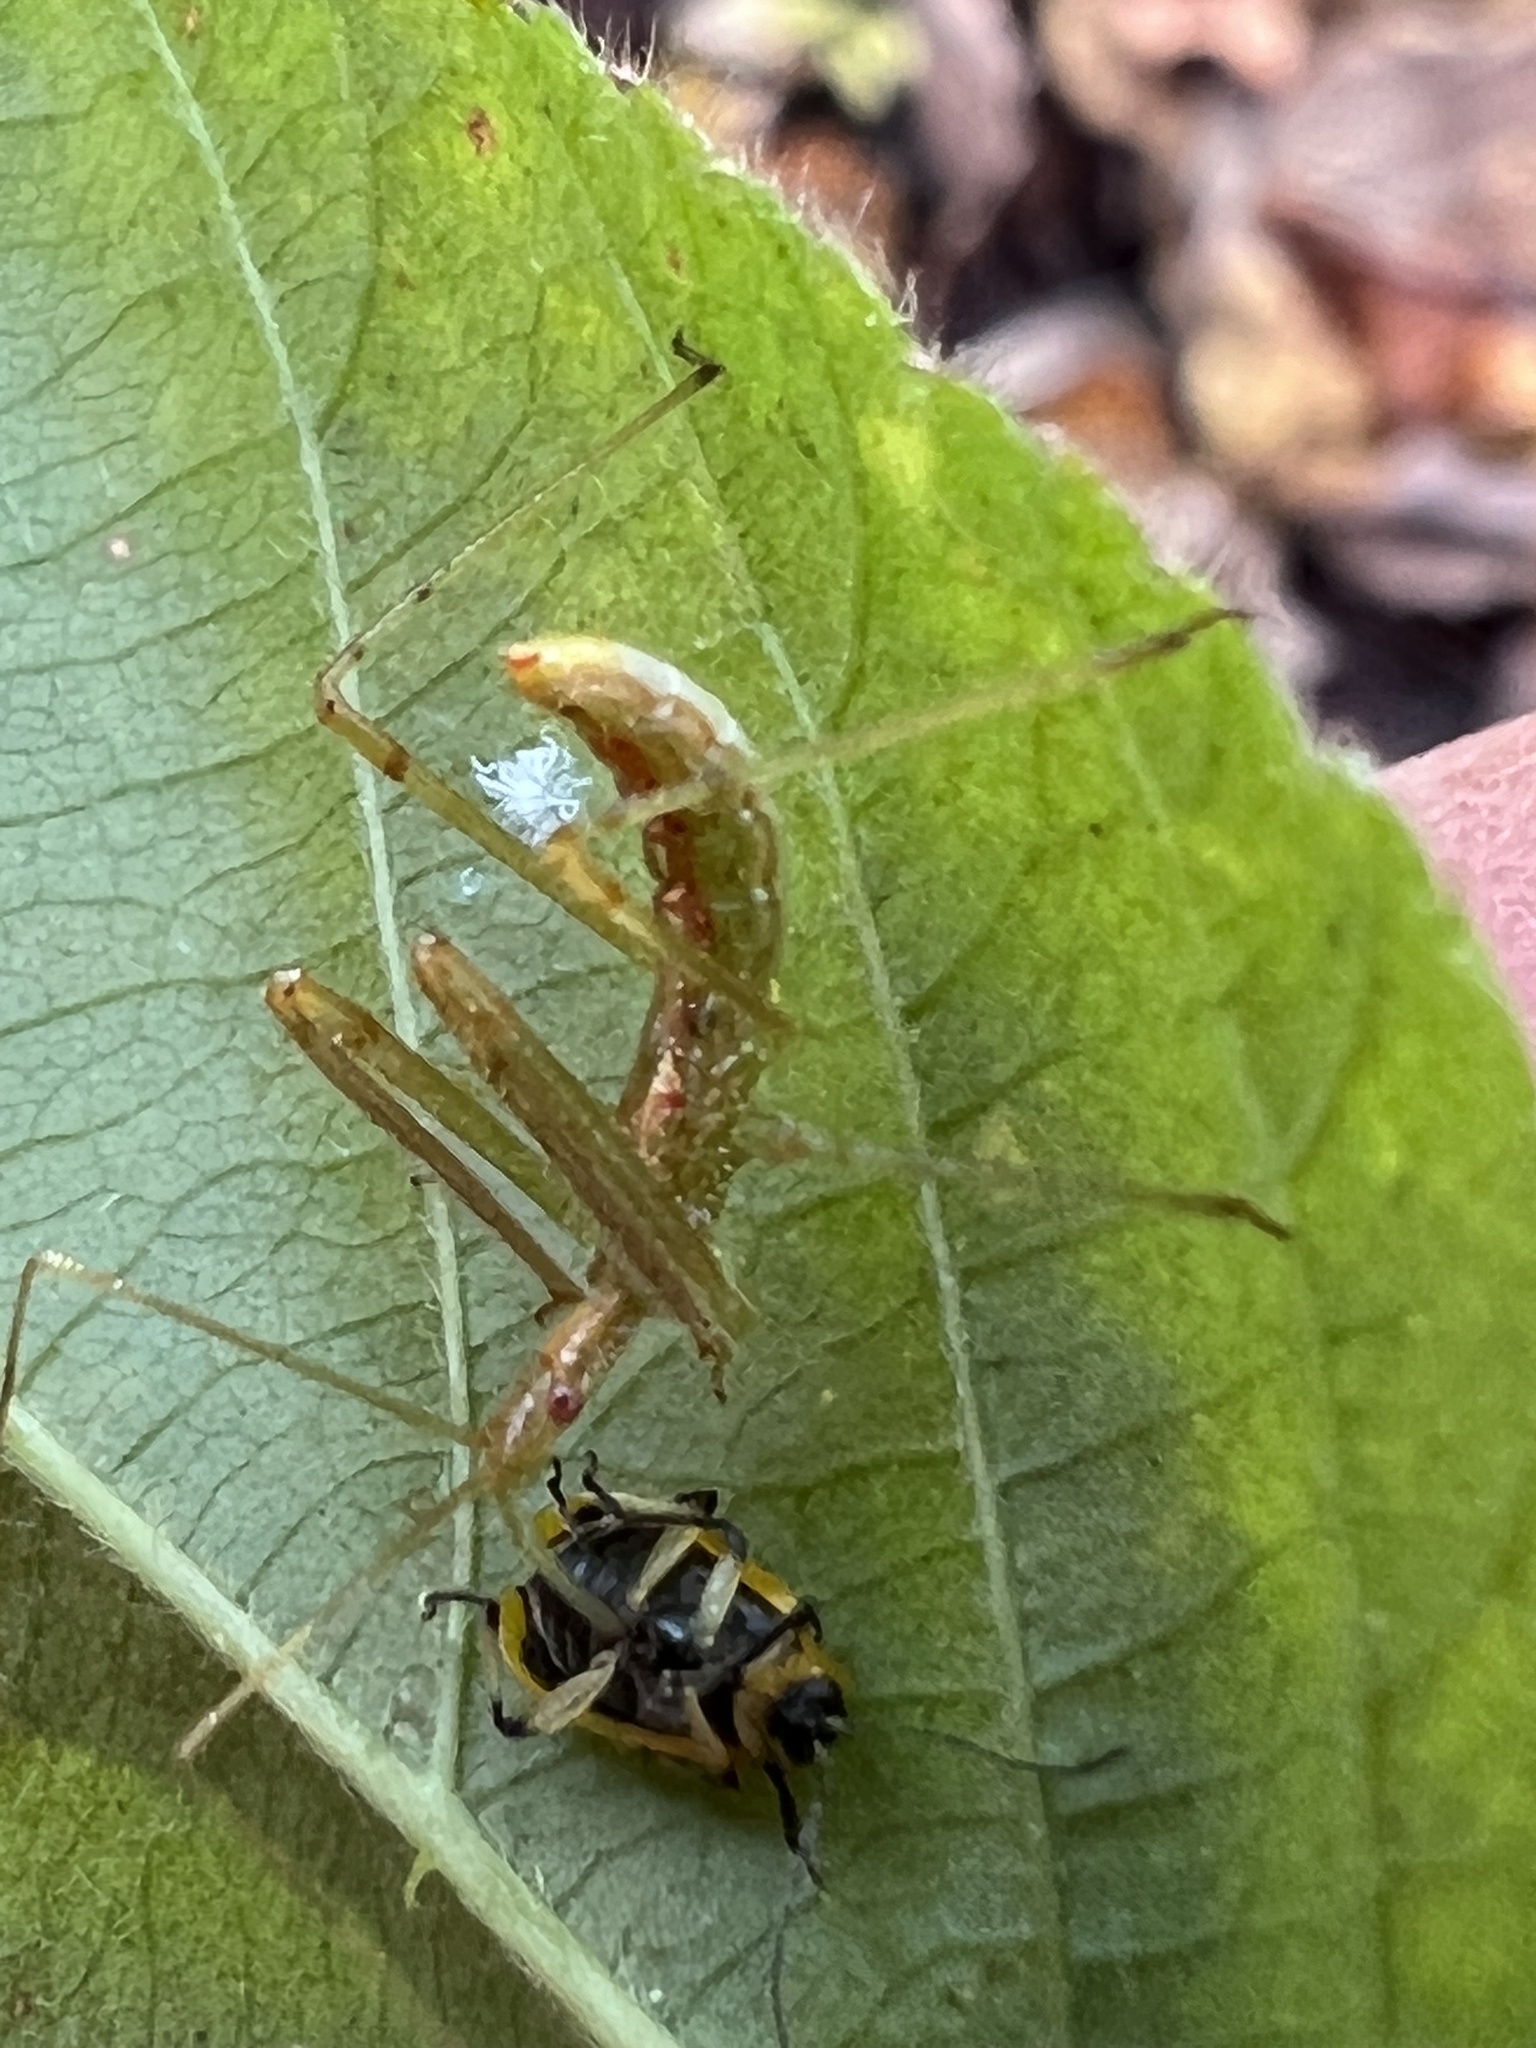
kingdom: Animalia
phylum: Arthropoda
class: Insecta
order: Hemiptera
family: Reduviidae
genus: Zelus
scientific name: Zelus luridus
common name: Pale green assassin bug
